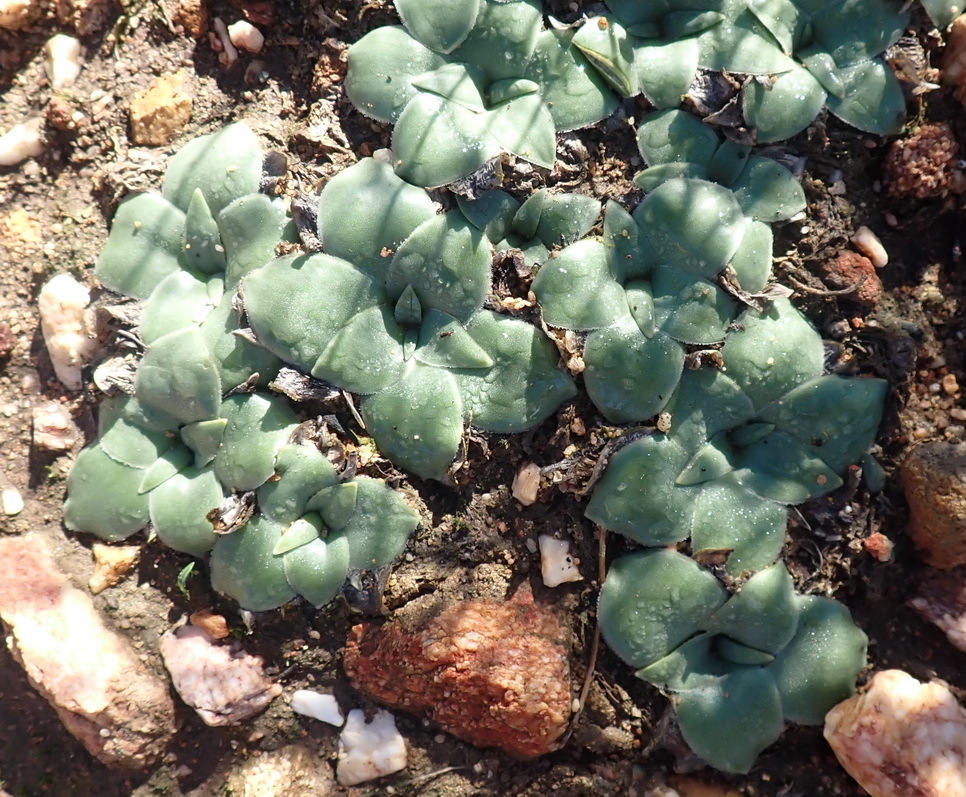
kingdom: Plantae
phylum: Tracheophyta
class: Liliopsida
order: Asparagales
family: Asparagaceae
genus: Drimia
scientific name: Drimia ciliata
